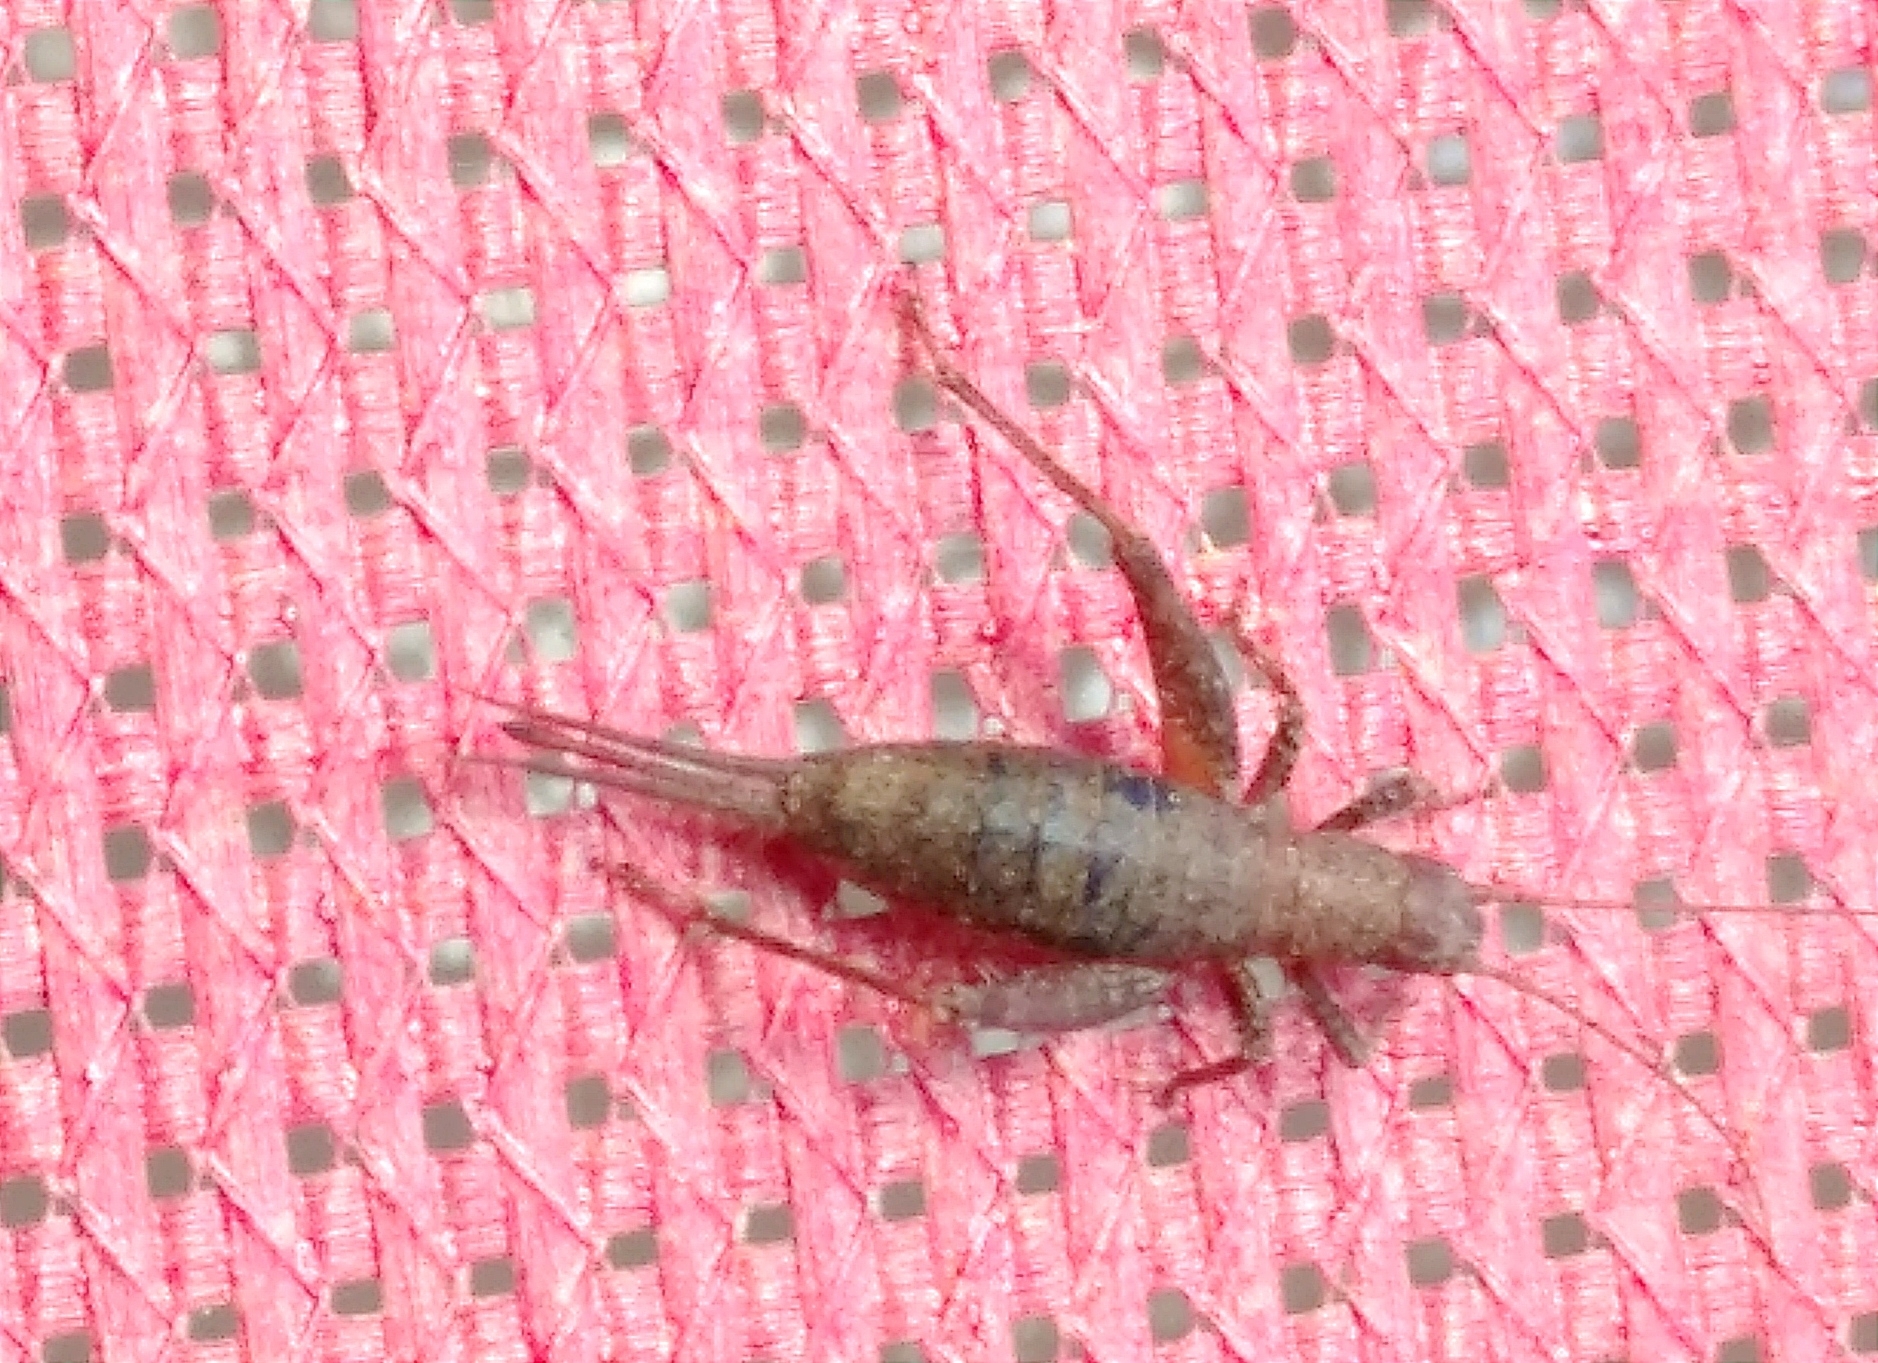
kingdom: Animalia
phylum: Arthropoda
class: Insecta
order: Orthoptera
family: Mogoplistidae
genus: Arachnocephalus
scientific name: Arachnocephalus vestitus
